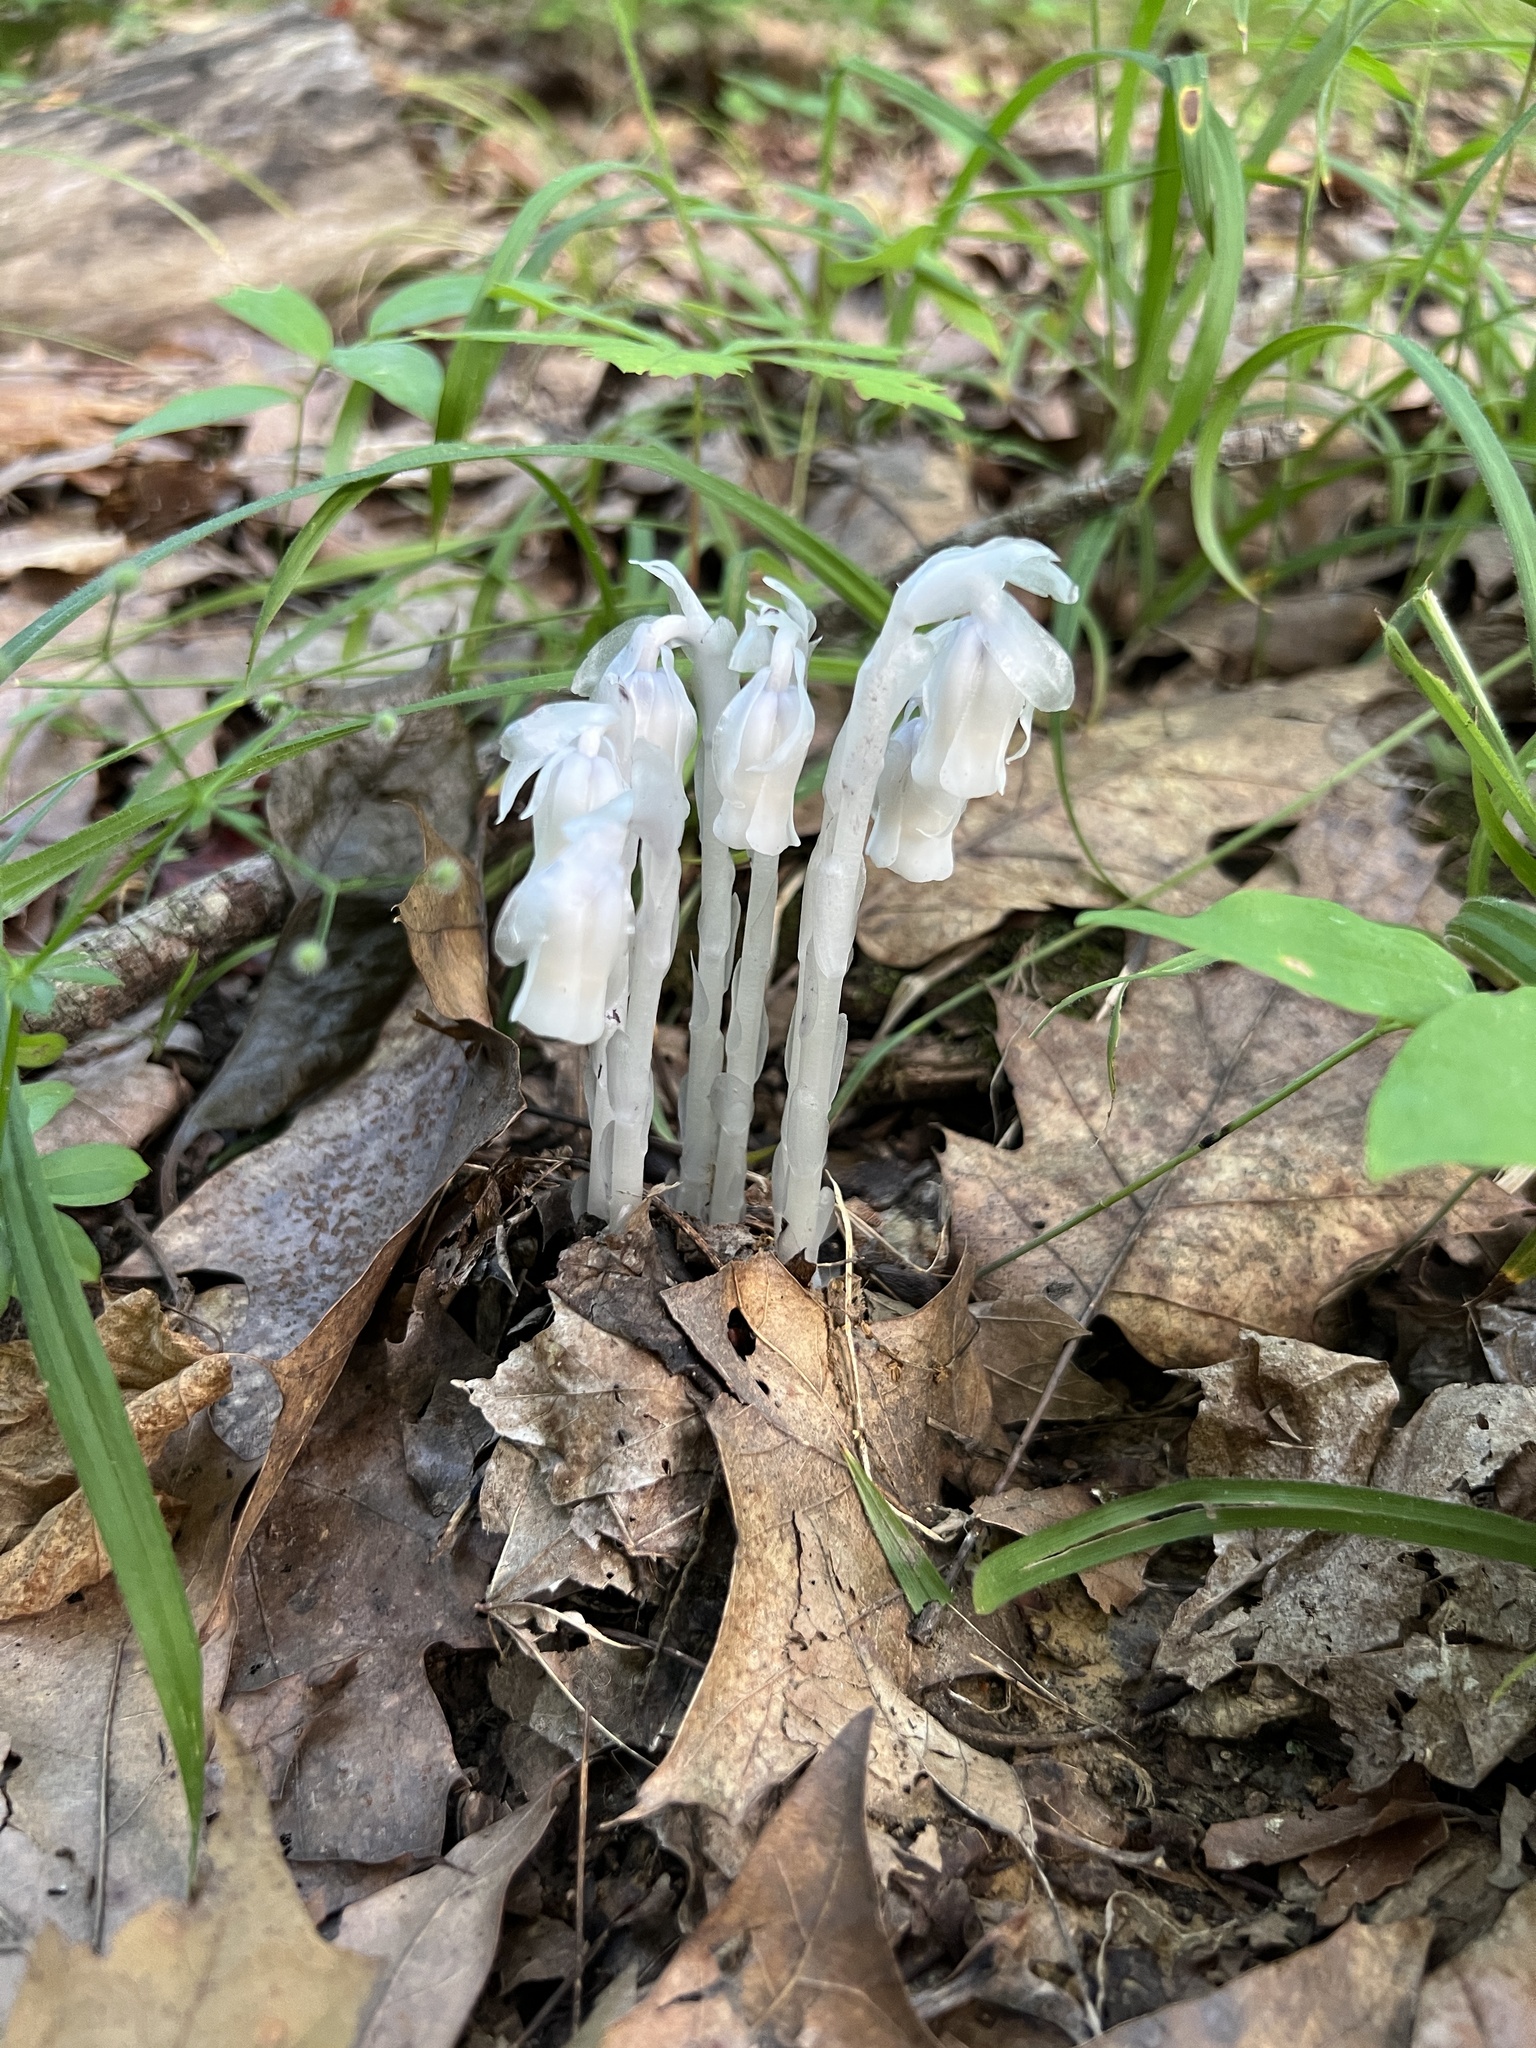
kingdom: Plantae
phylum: Tracheophyta
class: Magnoliopsida
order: Ericales
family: Ericaceae
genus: Monotropa
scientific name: Monotropa uniflora
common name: Convulsion root
